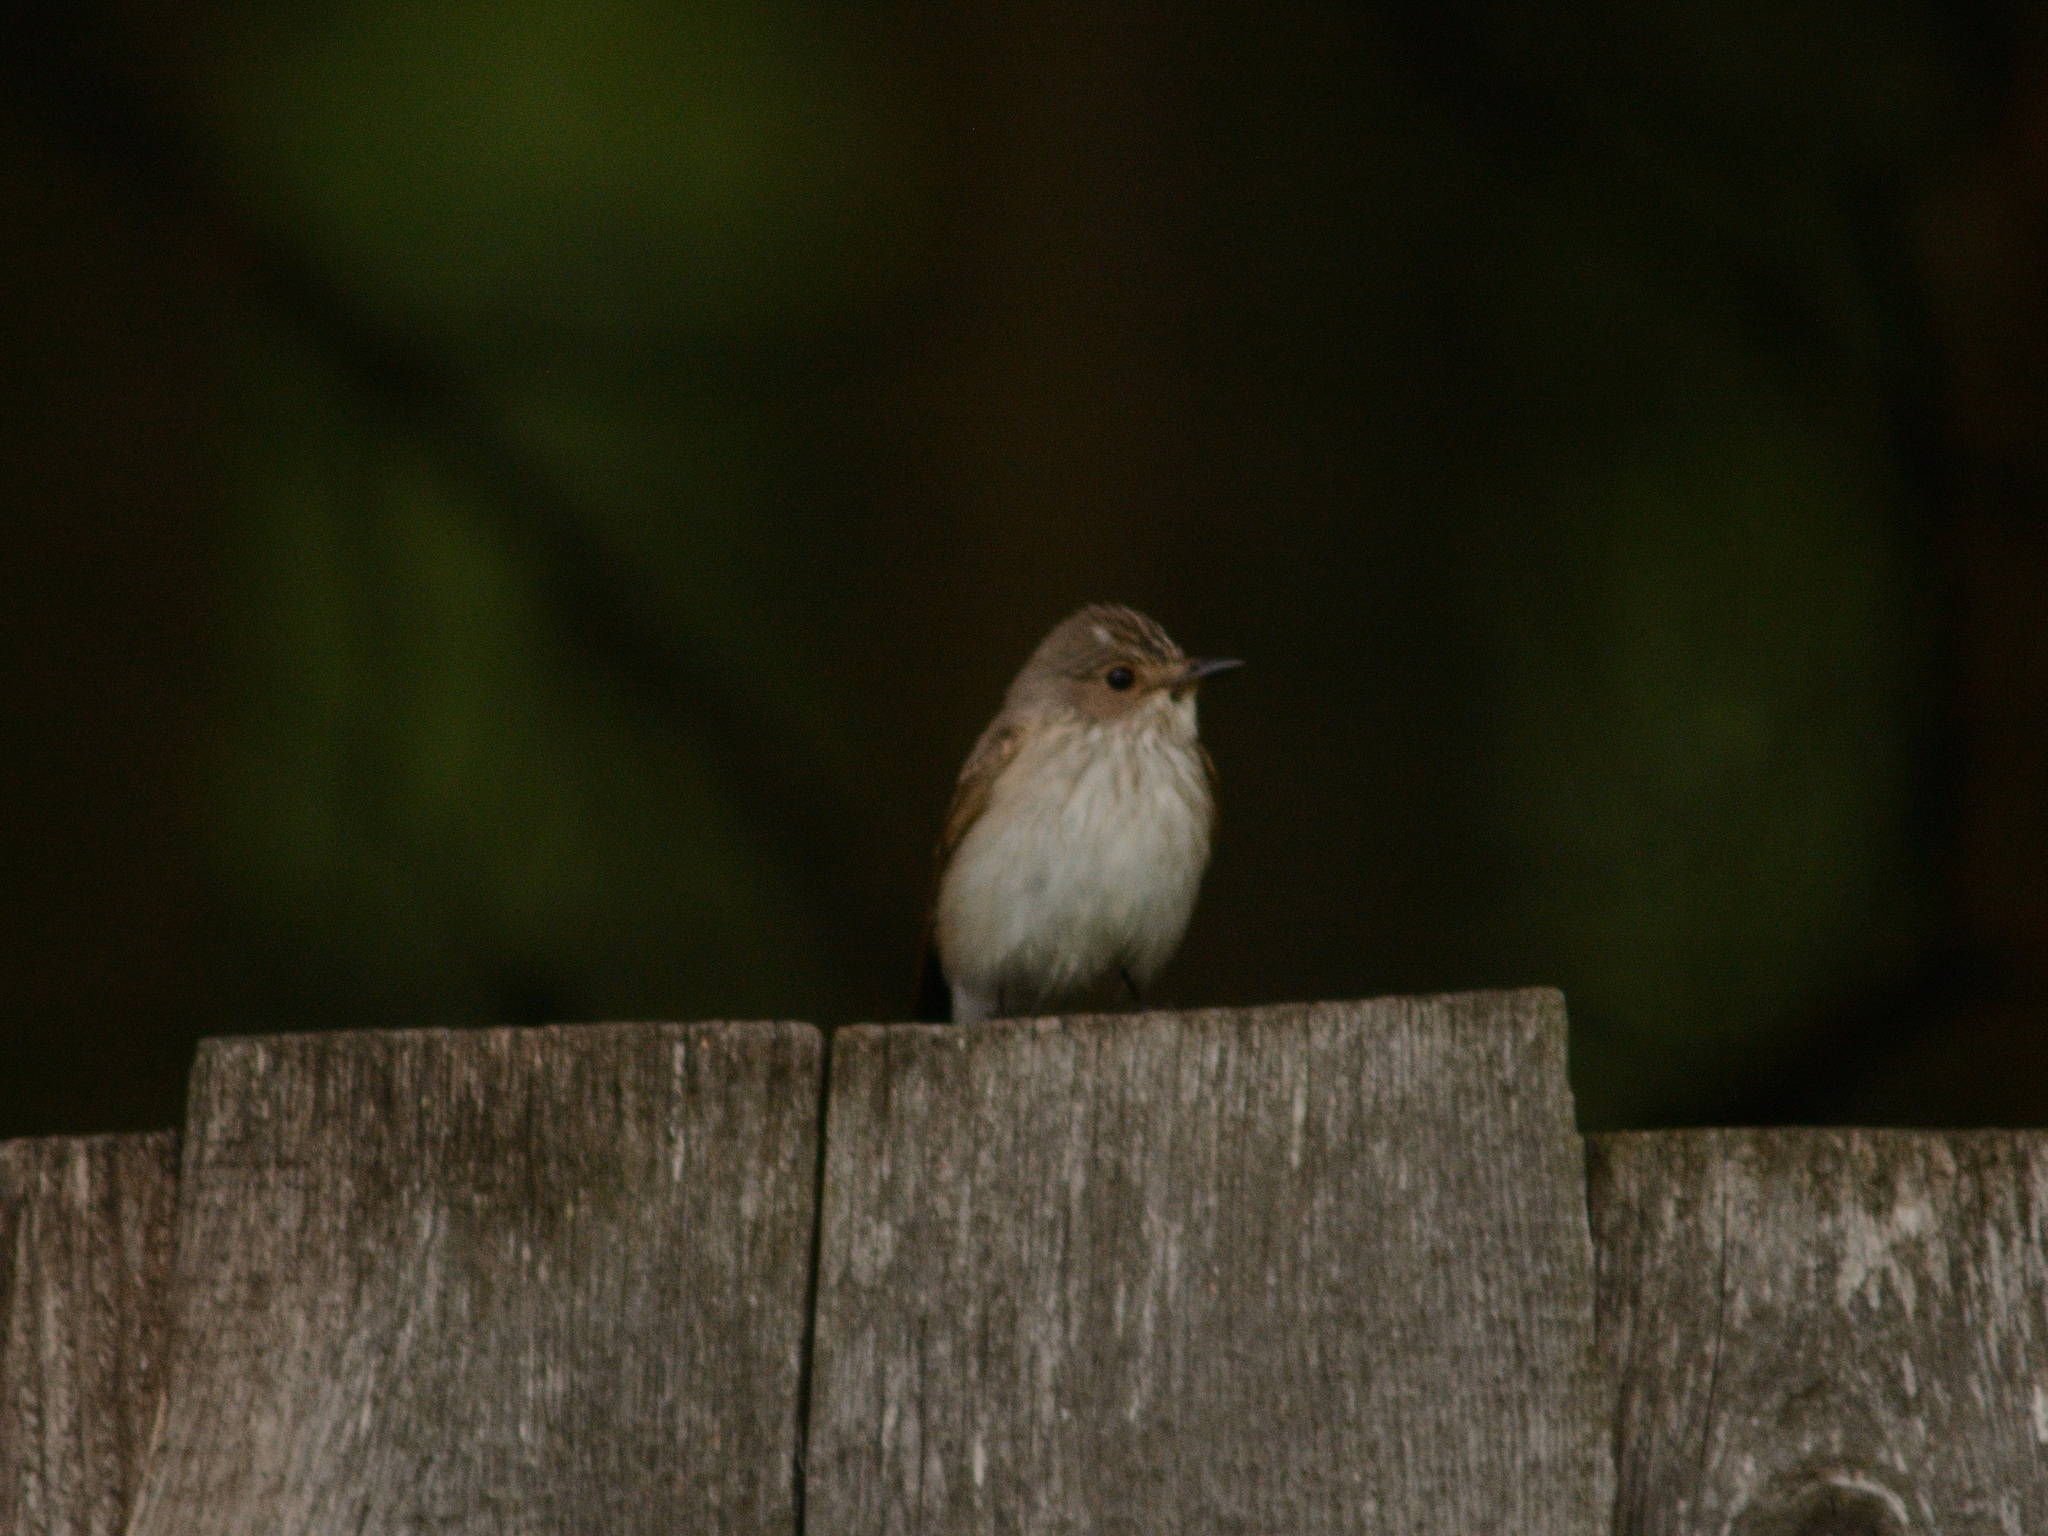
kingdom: Animalia
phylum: Chordata
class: Aves
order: Passeriformes
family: Muscicapidae
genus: Muscicapa
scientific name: Muscicapa striata
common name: Spotted flycatcher
